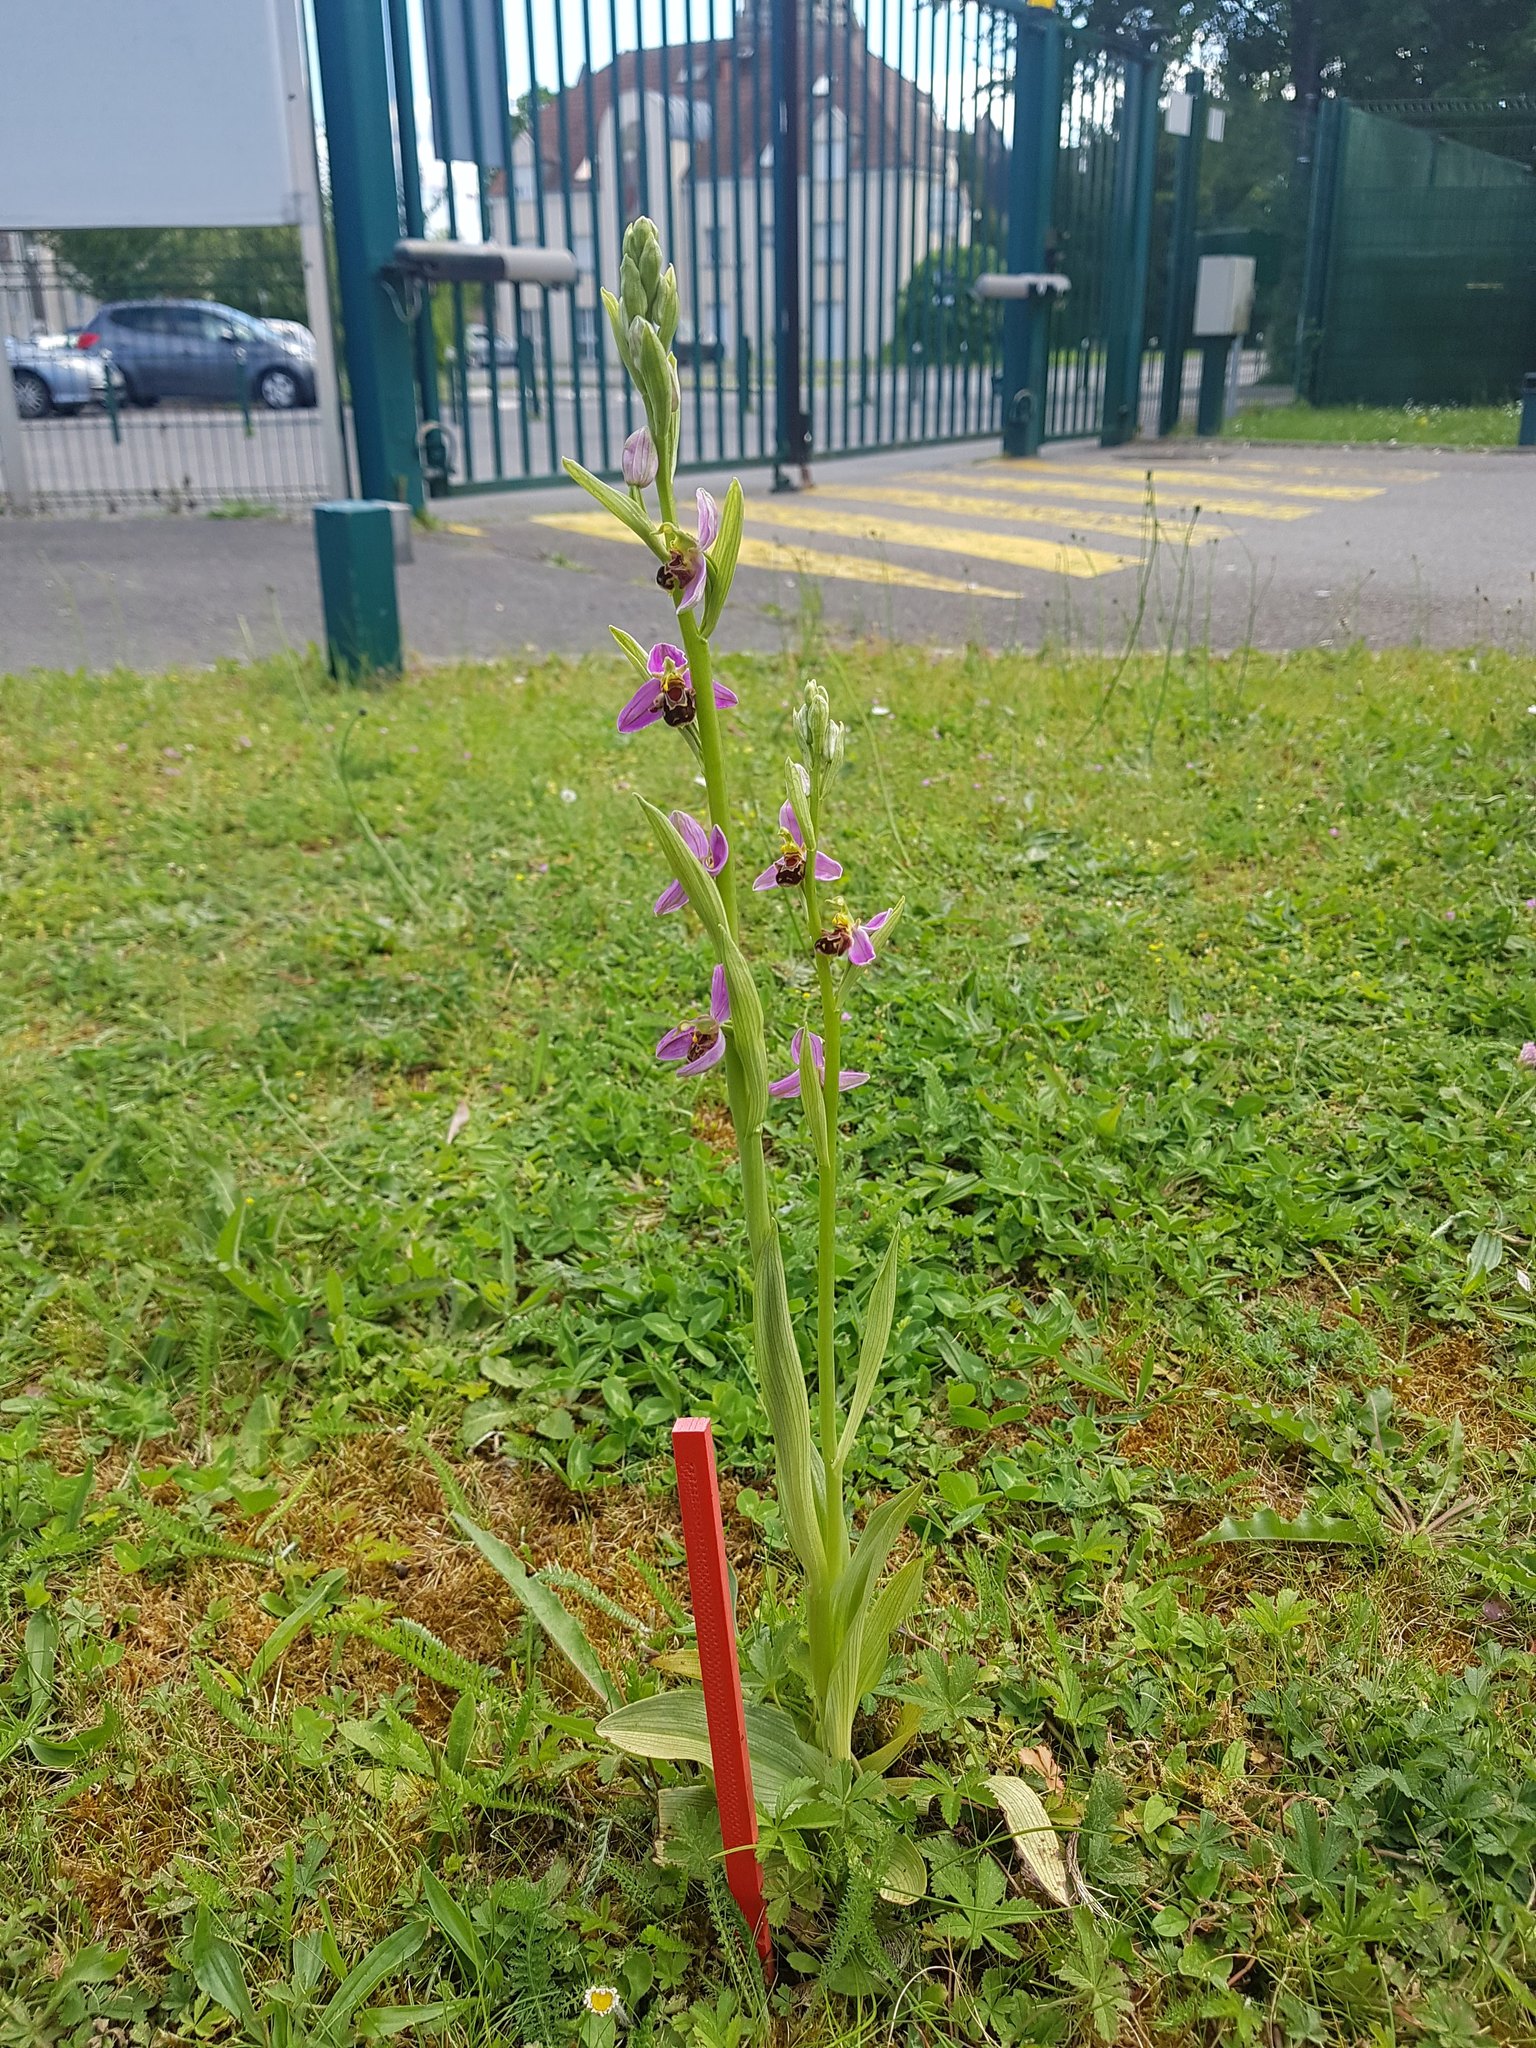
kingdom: Plantae
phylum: Tracheophyta
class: Liliopsida
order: Asparagales
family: Orchidaceae
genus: Ophrys
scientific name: Ophrys apifera
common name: Bee orchid
